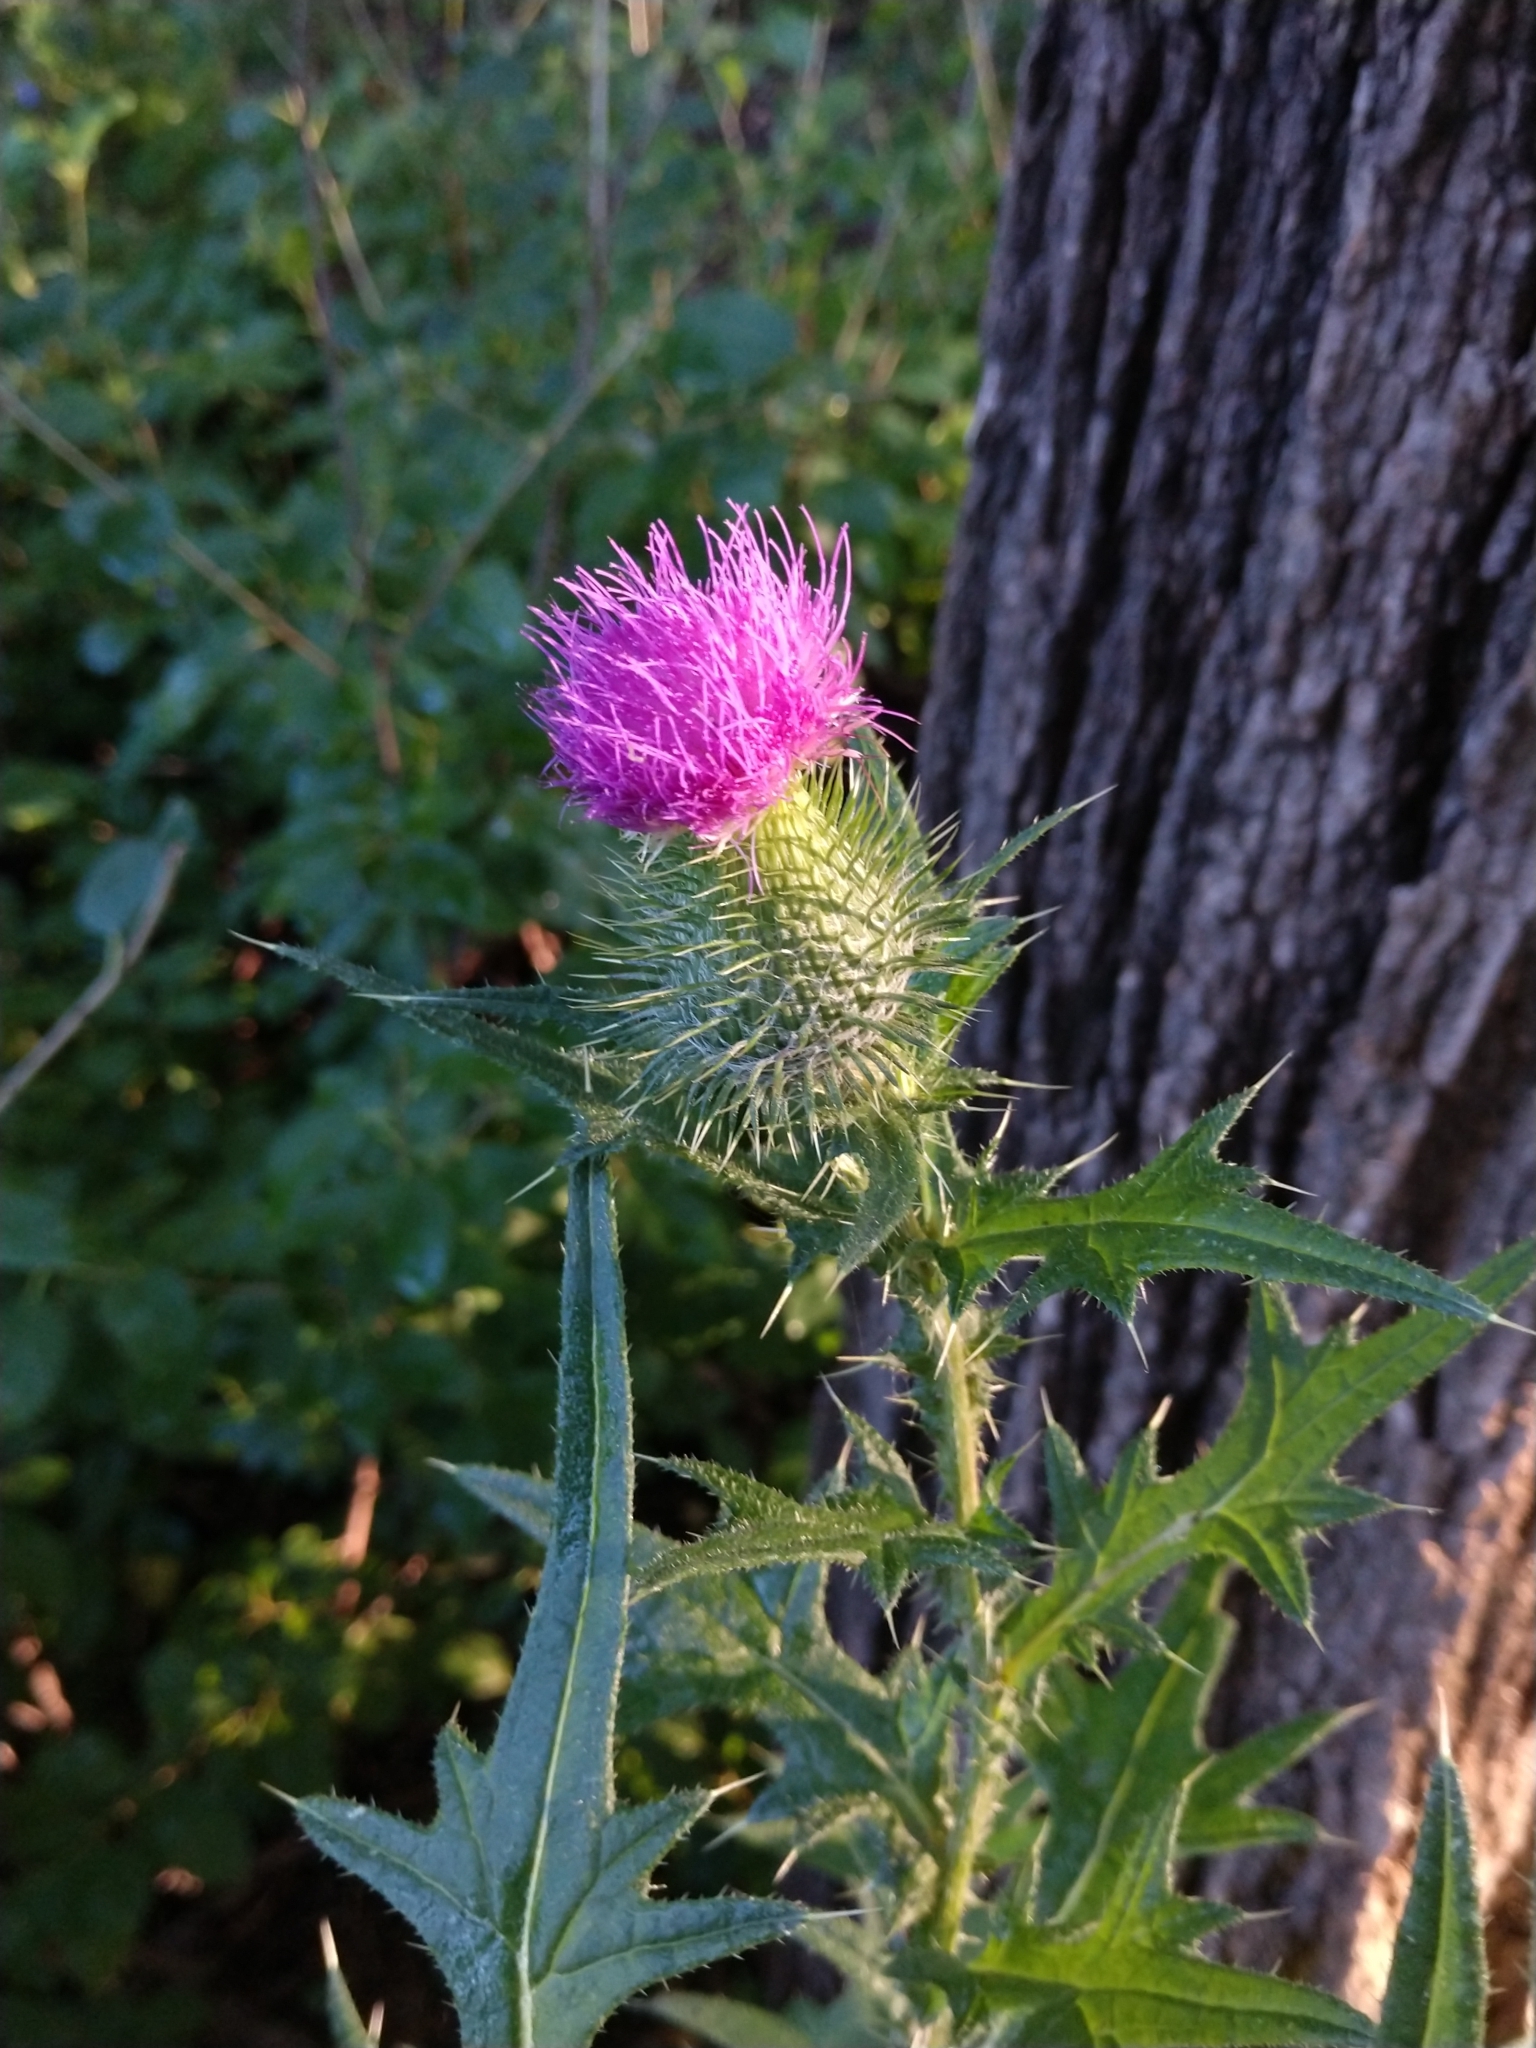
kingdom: Plantae
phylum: Tracheophyta
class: Magnoliopsida
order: Asterales
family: Asteraceae
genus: Cirsium
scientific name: Cirsium vulgare
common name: Bull thistle
